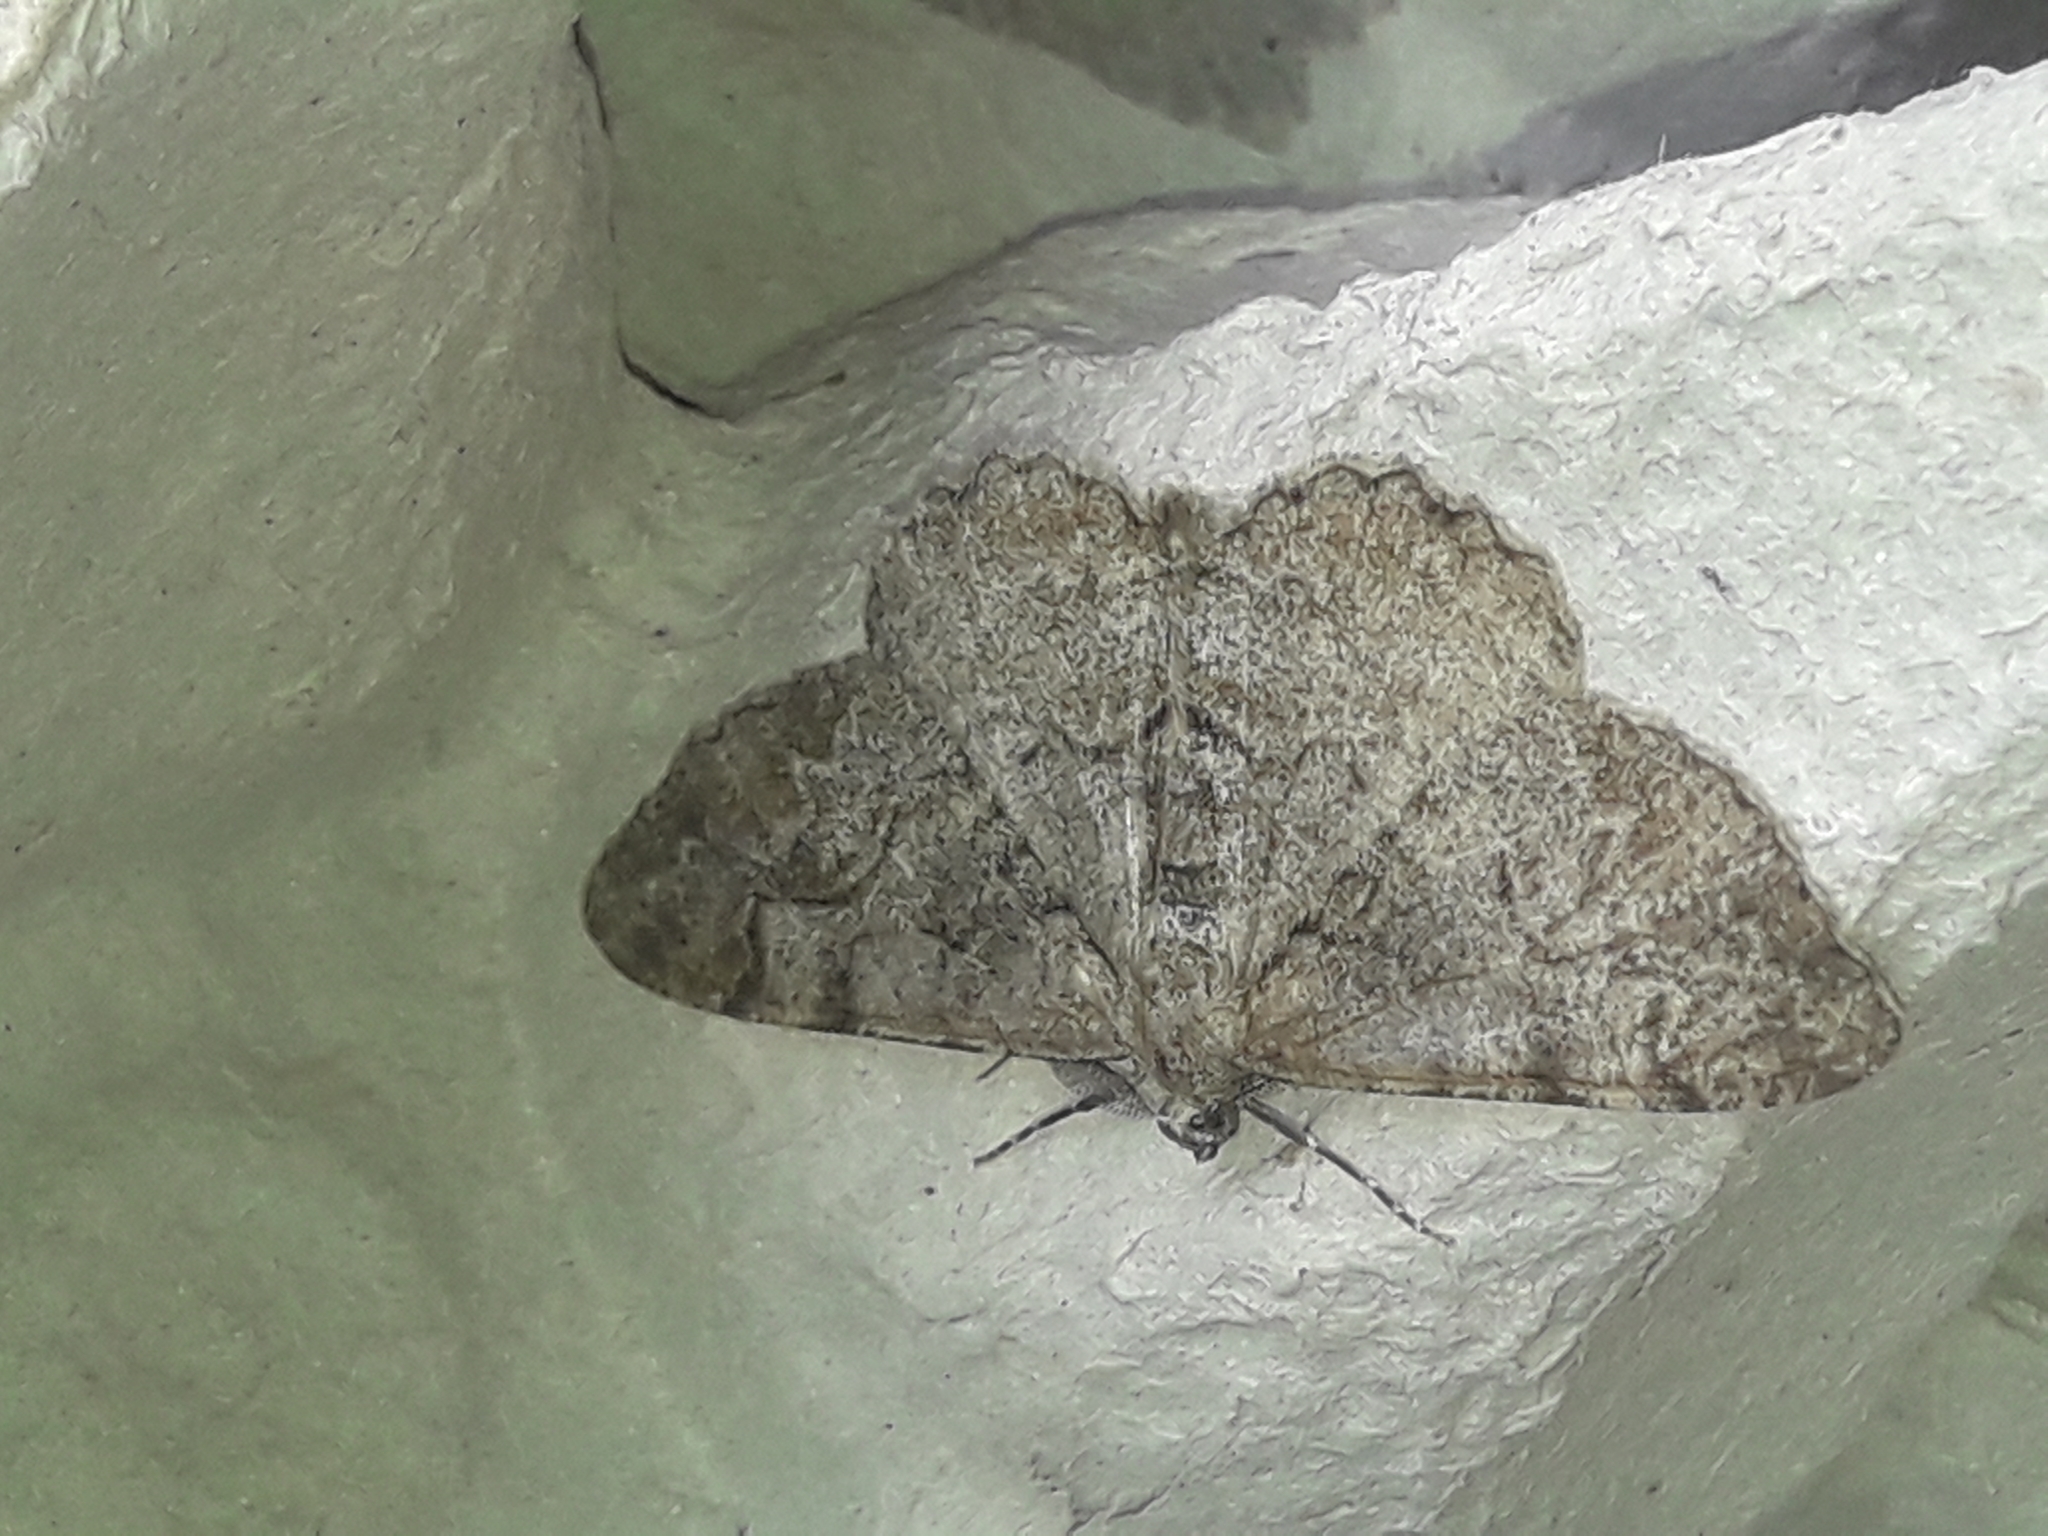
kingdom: Animalia
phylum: Arthropoda
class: Insecta
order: Lepidoptera
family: Geometridae
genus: Alcis
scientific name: Alcis repandata
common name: Mottled beauty
